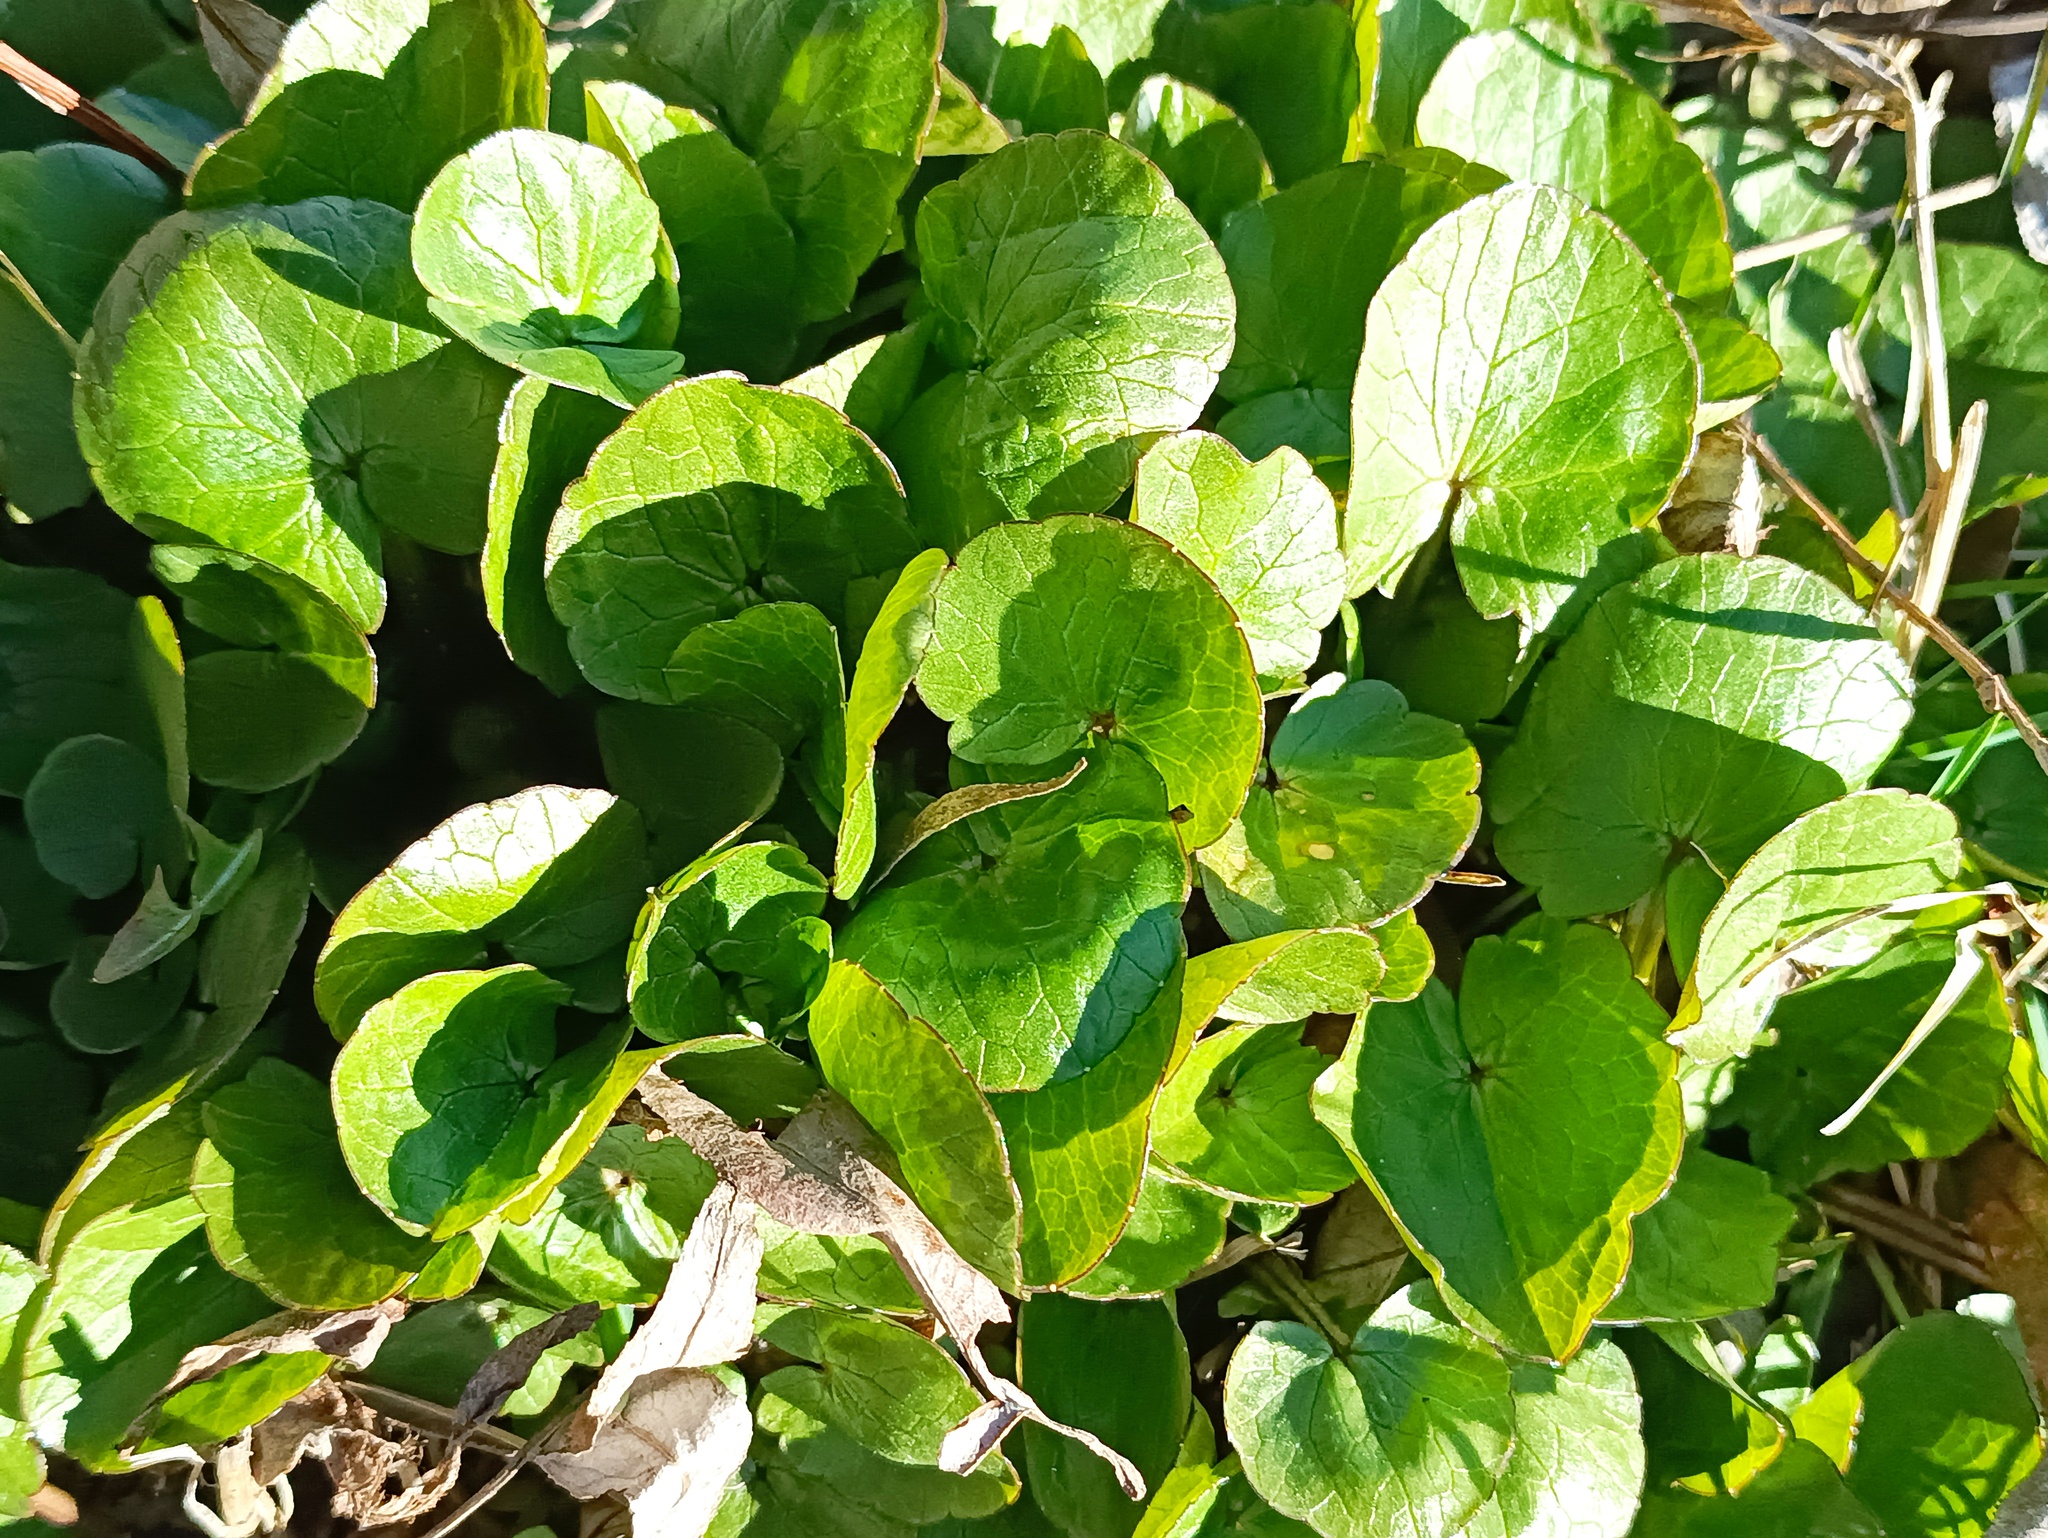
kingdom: Plantae
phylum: Tracheophyta
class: Magnoliopsida
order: Ranunculales
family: Ranunculaceae
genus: Ficaria
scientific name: Ficaria verna
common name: Lesser celandine
